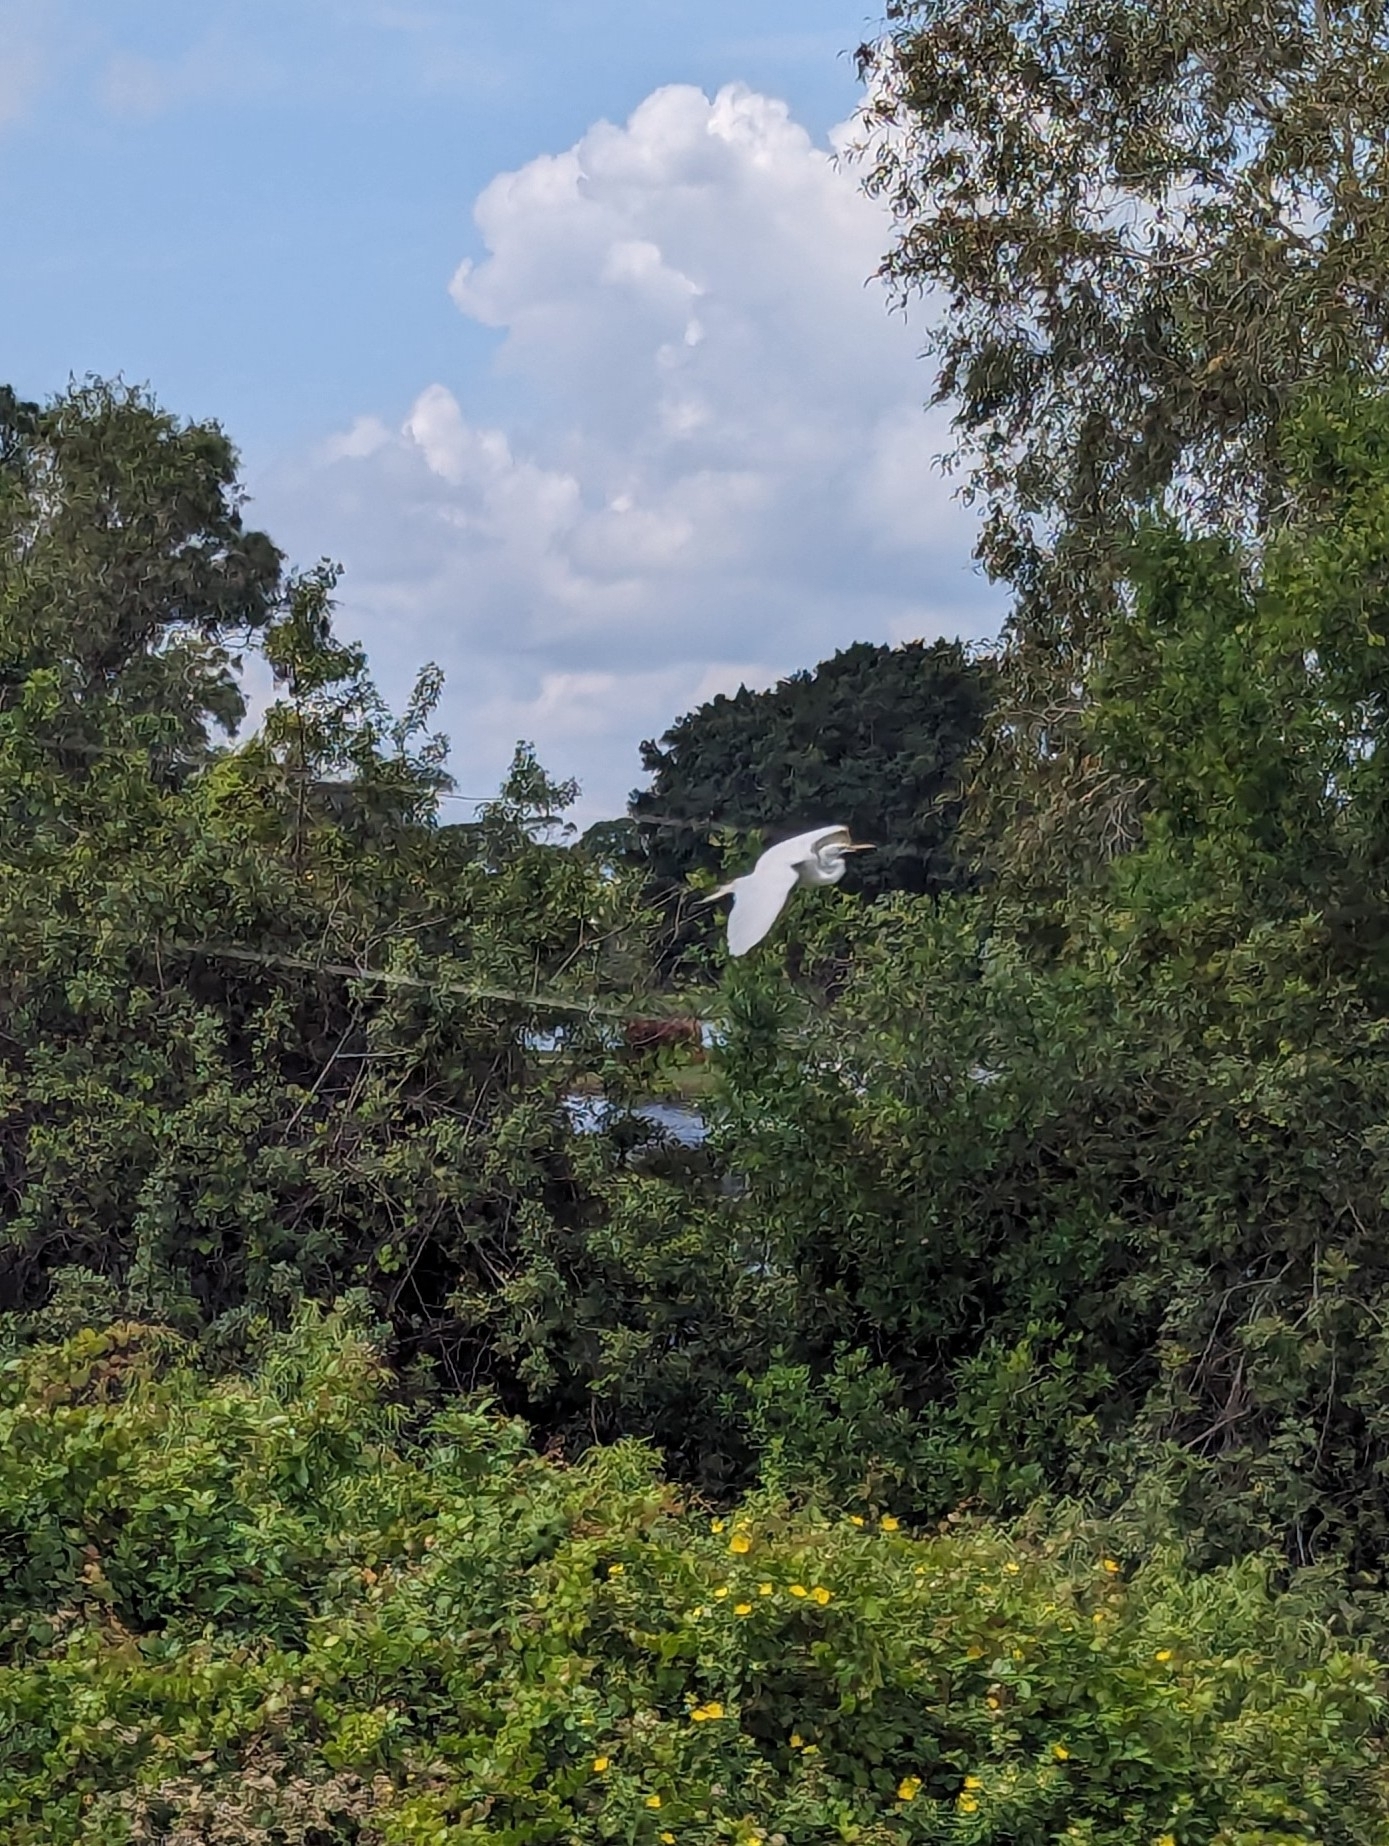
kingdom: Animalia
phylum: Chordata
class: Aves
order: Pelecaniformes
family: Ardeidae
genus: Ardea
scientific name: Ardea alba
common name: Great egret
